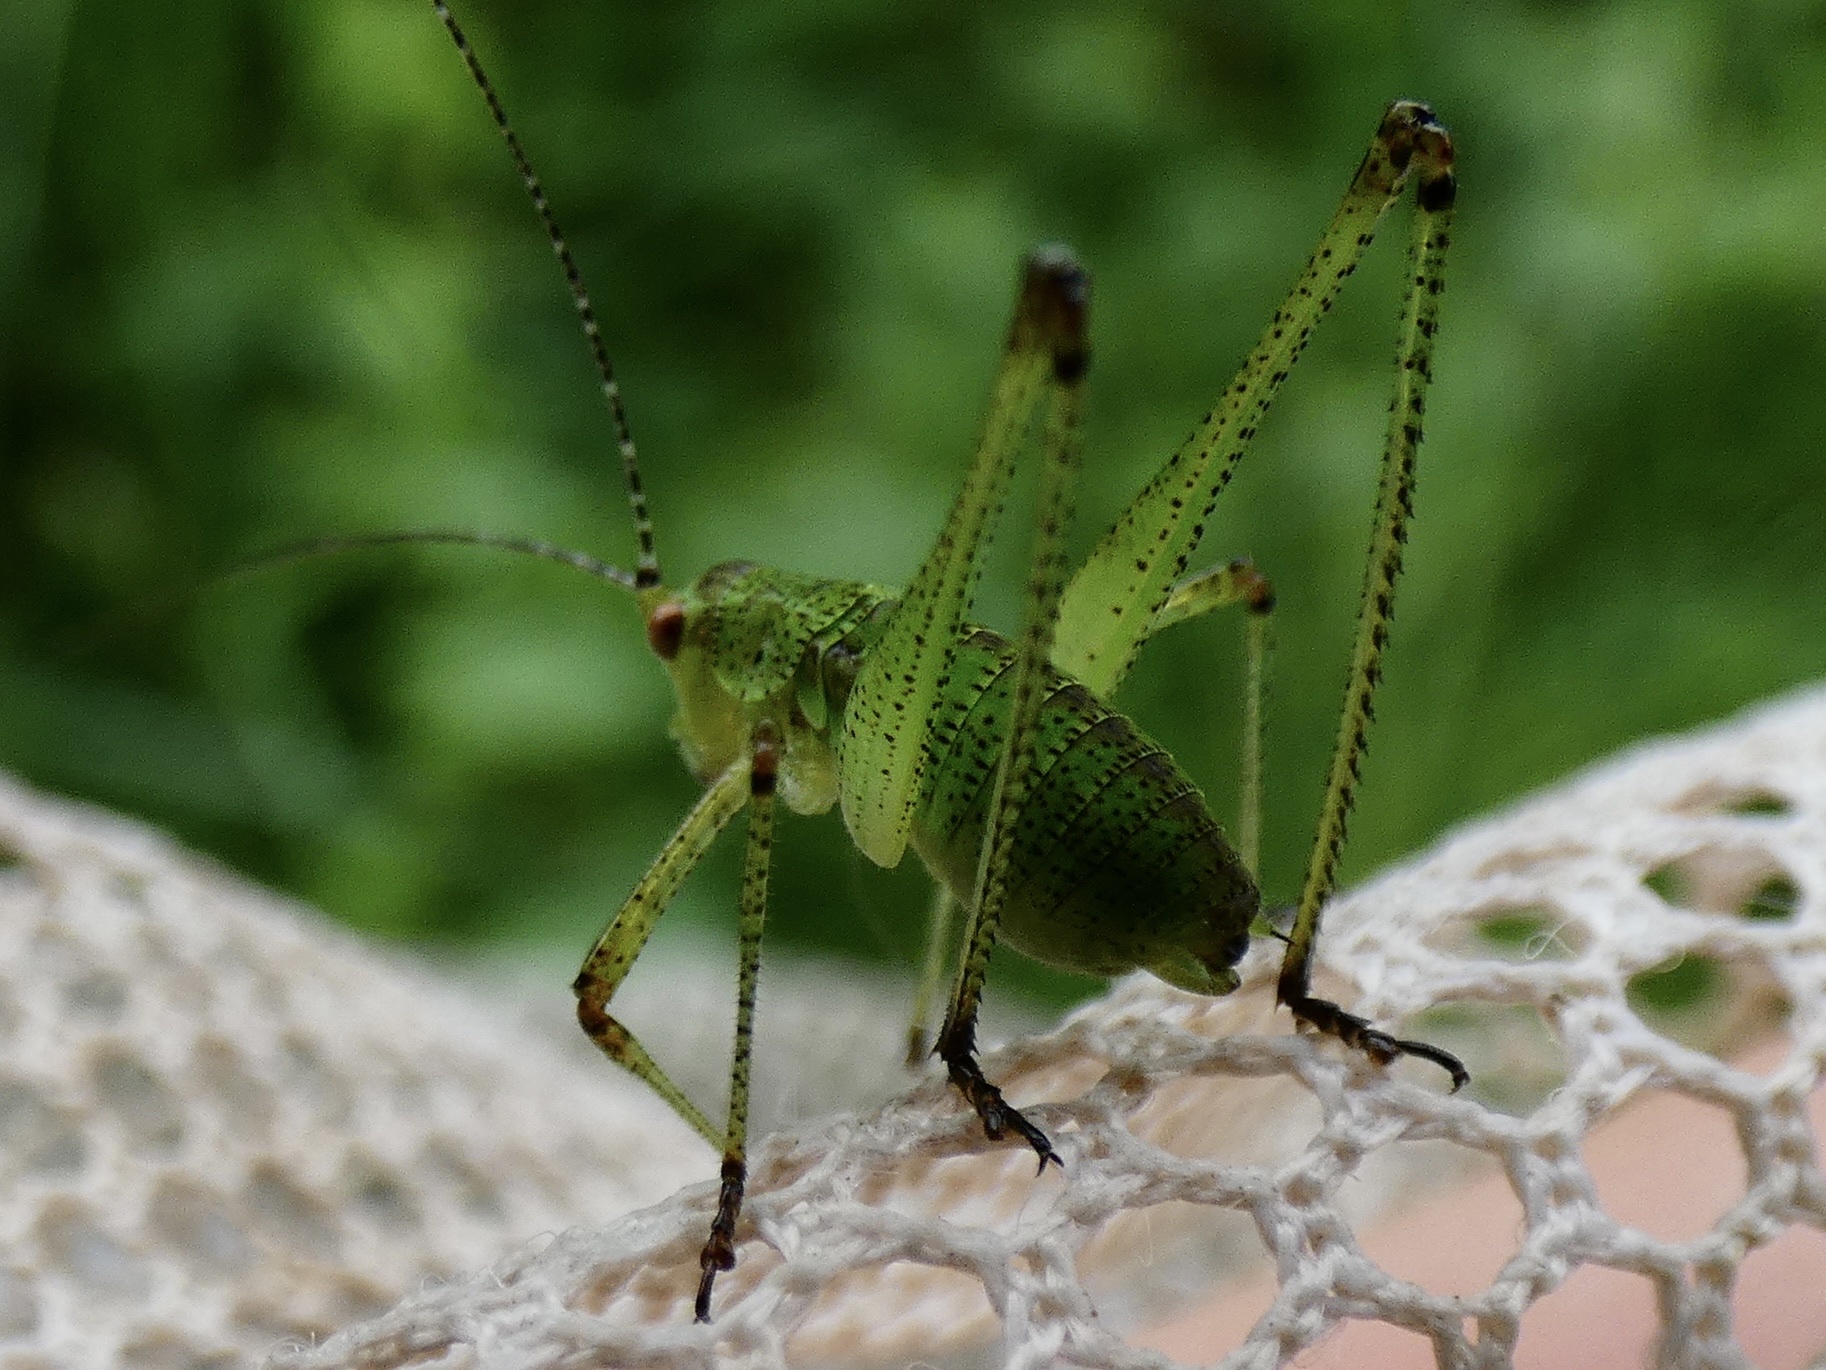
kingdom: Animalia
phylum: Arthropoda
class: Insecta
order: Orthoptera
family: Tettigoniidae
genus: Phaneroptera
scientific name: Phaneroptera nana
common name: Southern sickle bush-cricket
